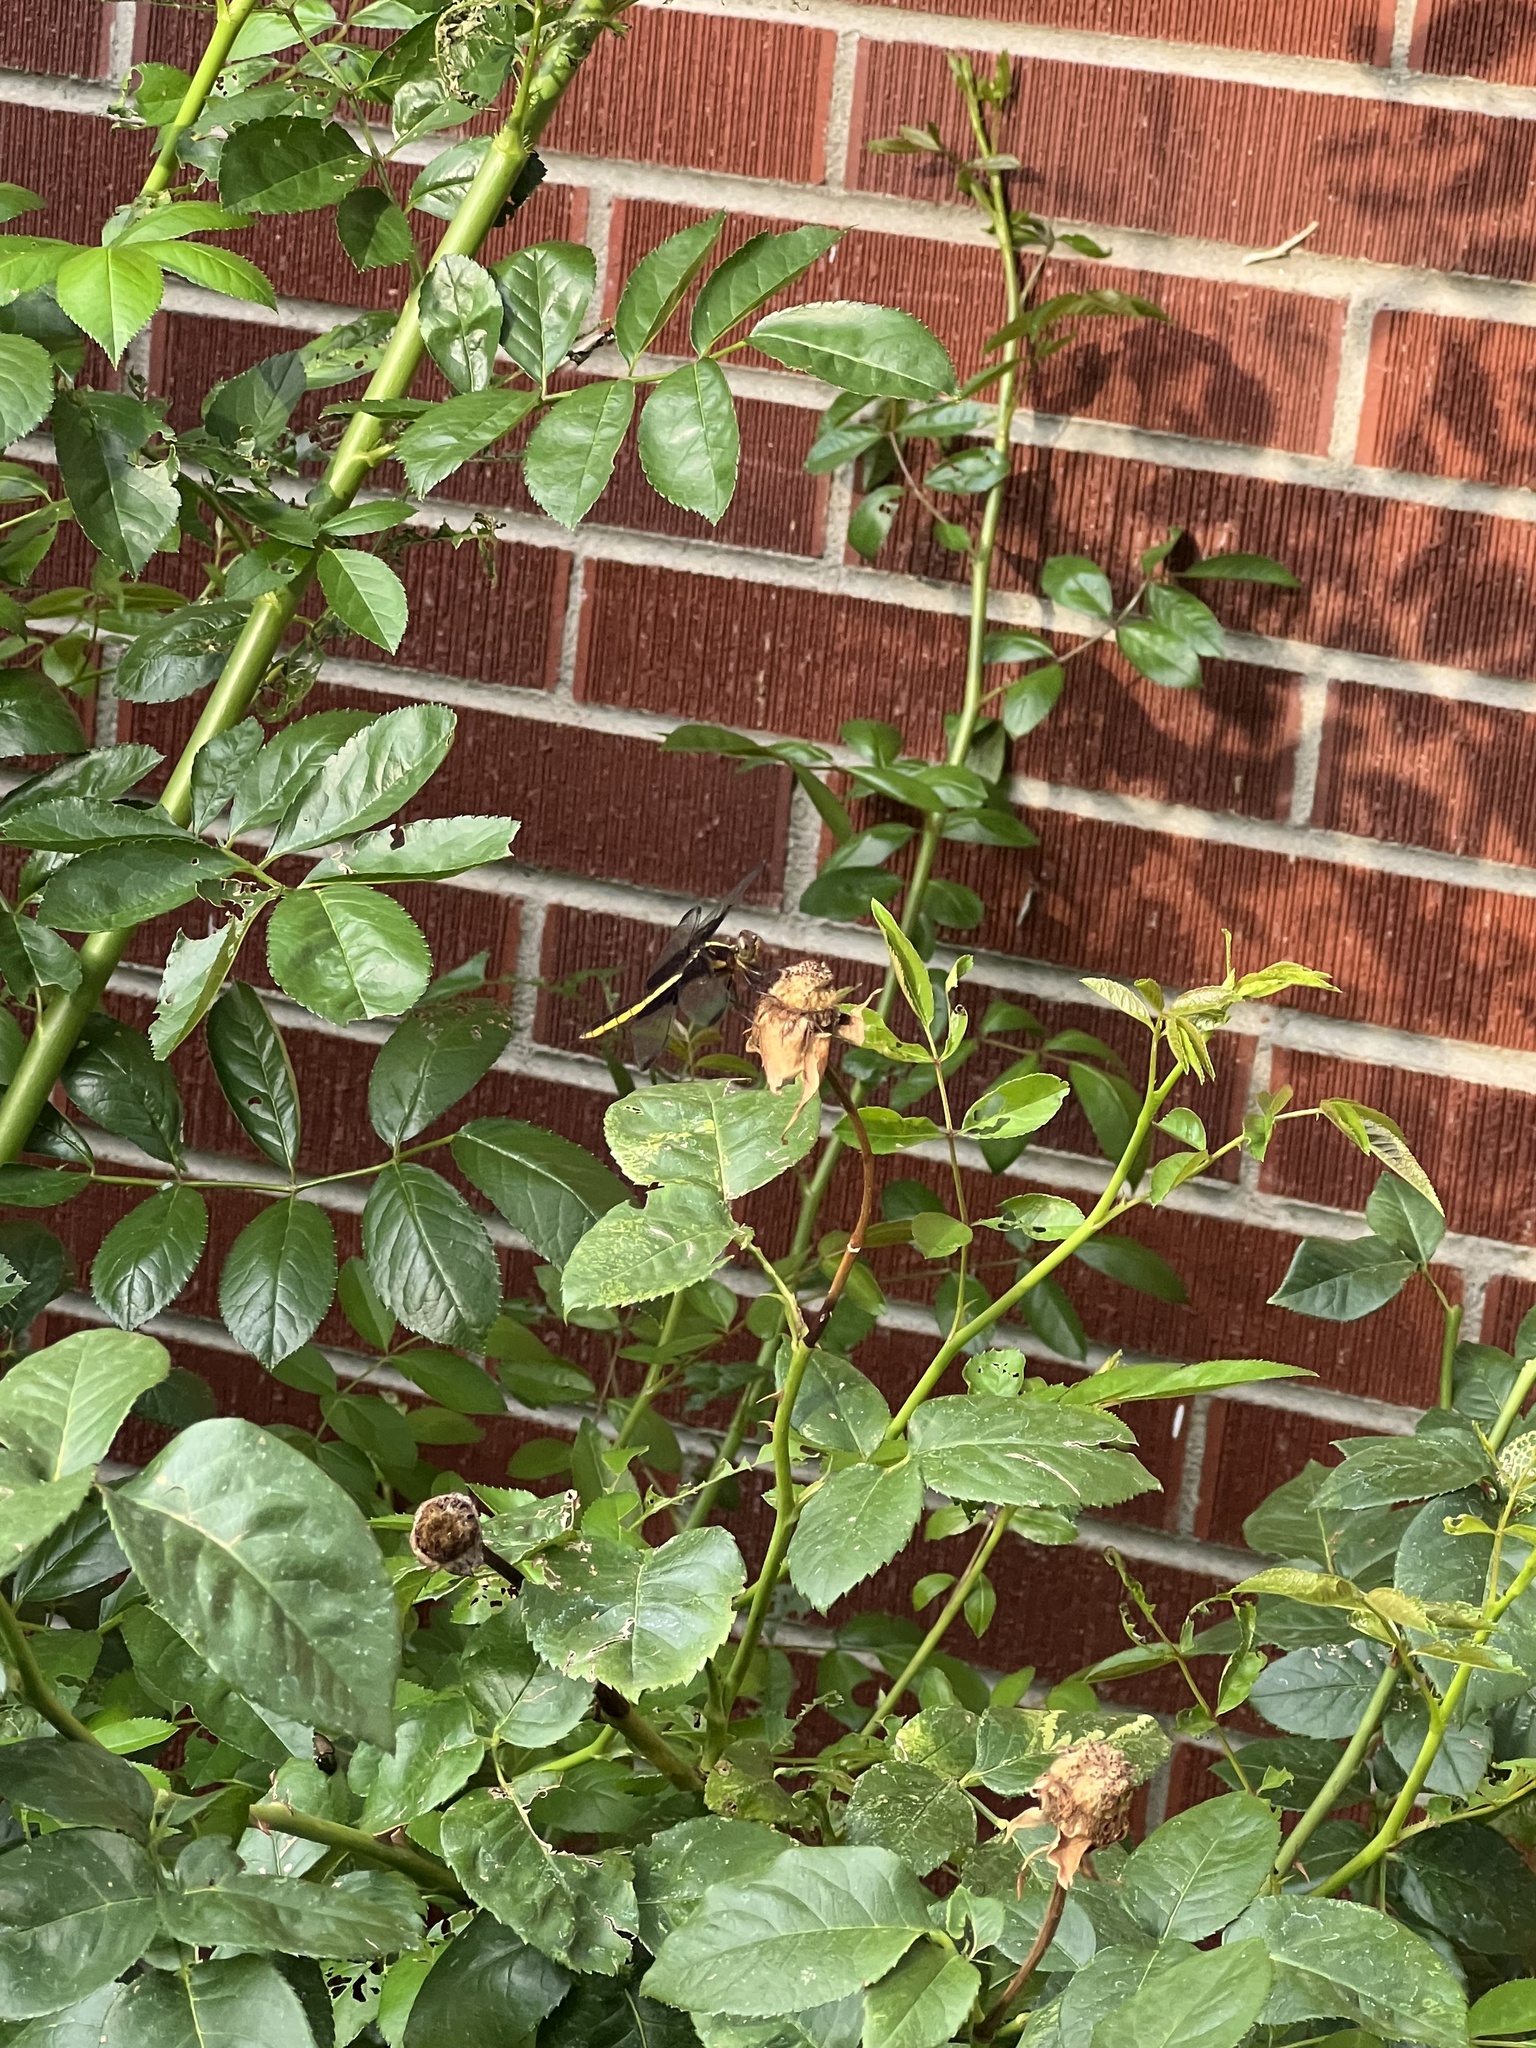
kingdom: Animalia
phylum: Arthropoda
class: Insecta
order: Odonata
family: Libellulidae
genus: Libellula
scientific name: Libellula luctuosa
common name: Widow skimmer
